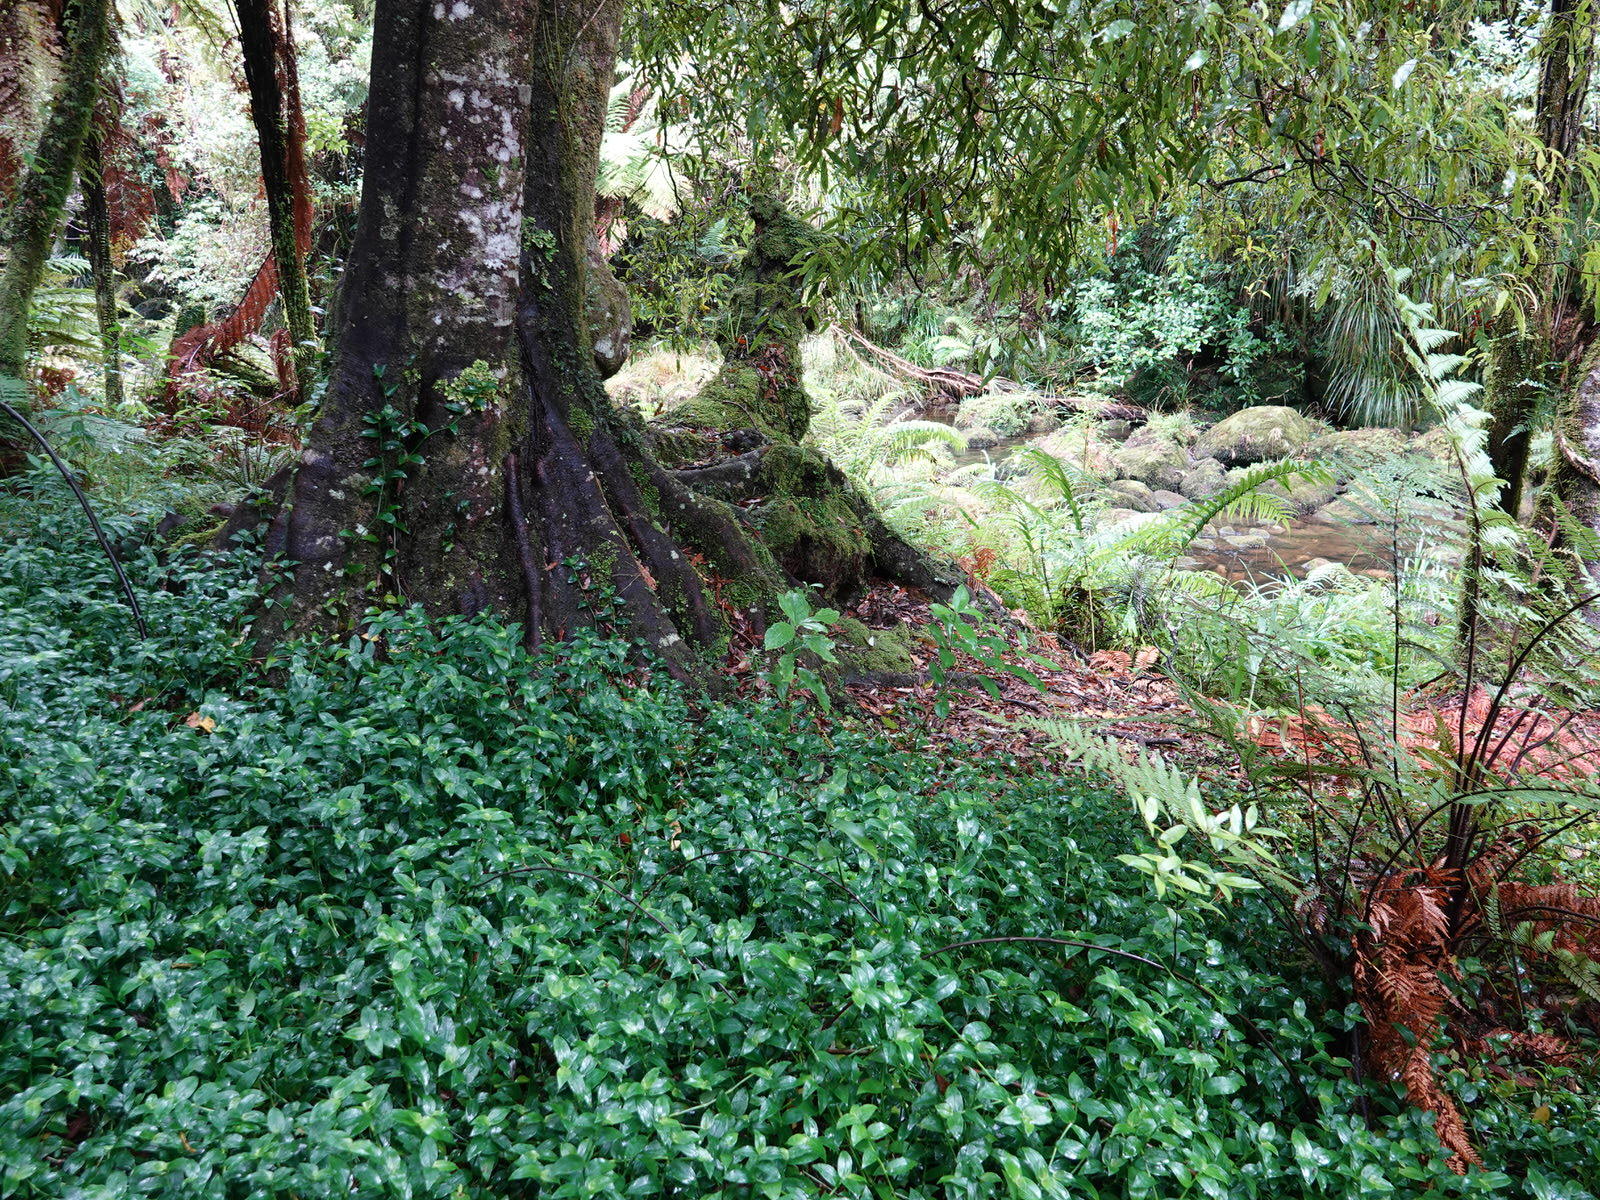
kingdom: Plantae
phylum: Tracheophyta
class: Liliopsida
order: Commelinales
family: Commelinaceae
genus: Tradescantia
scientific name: Tradescantia fluminensis
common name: Wandering-jew
